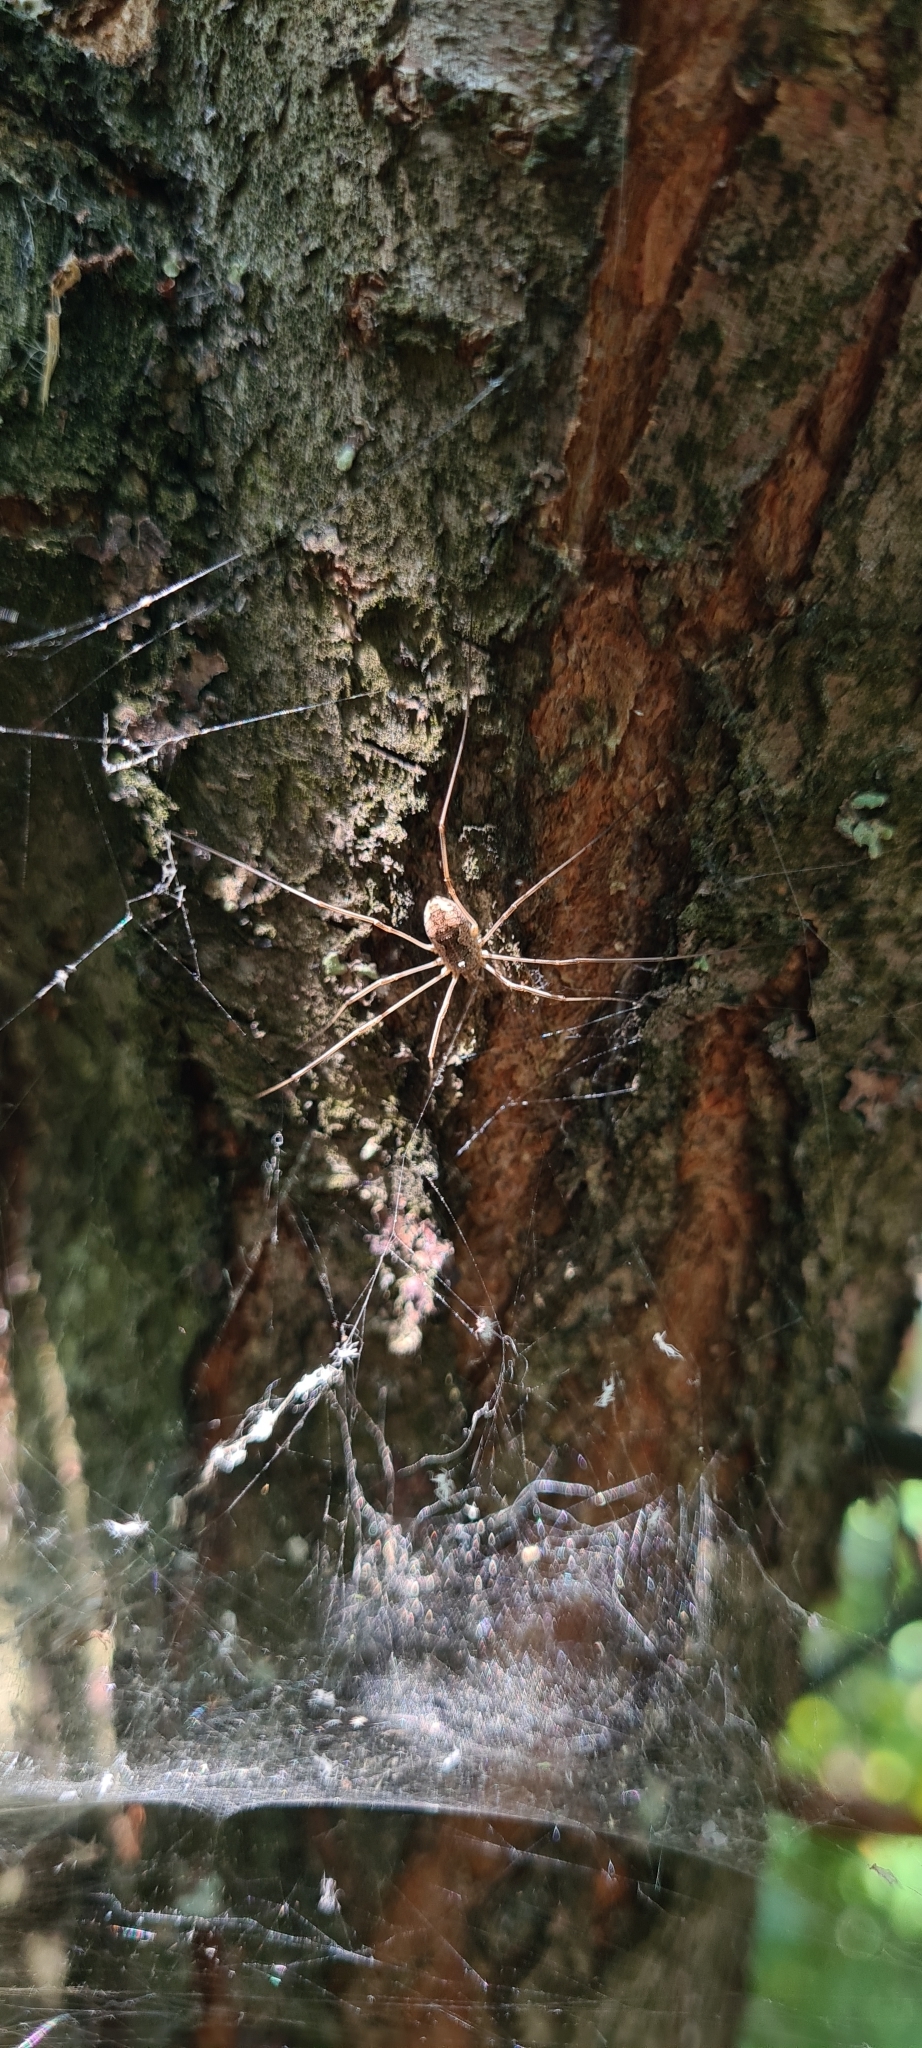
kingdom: Animalia
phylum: Arthropoda
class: Arachnida
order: Opiliones
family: Phalangiidae
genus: Phalangium
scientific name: Phalangium opilio
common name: Daddy longleg
